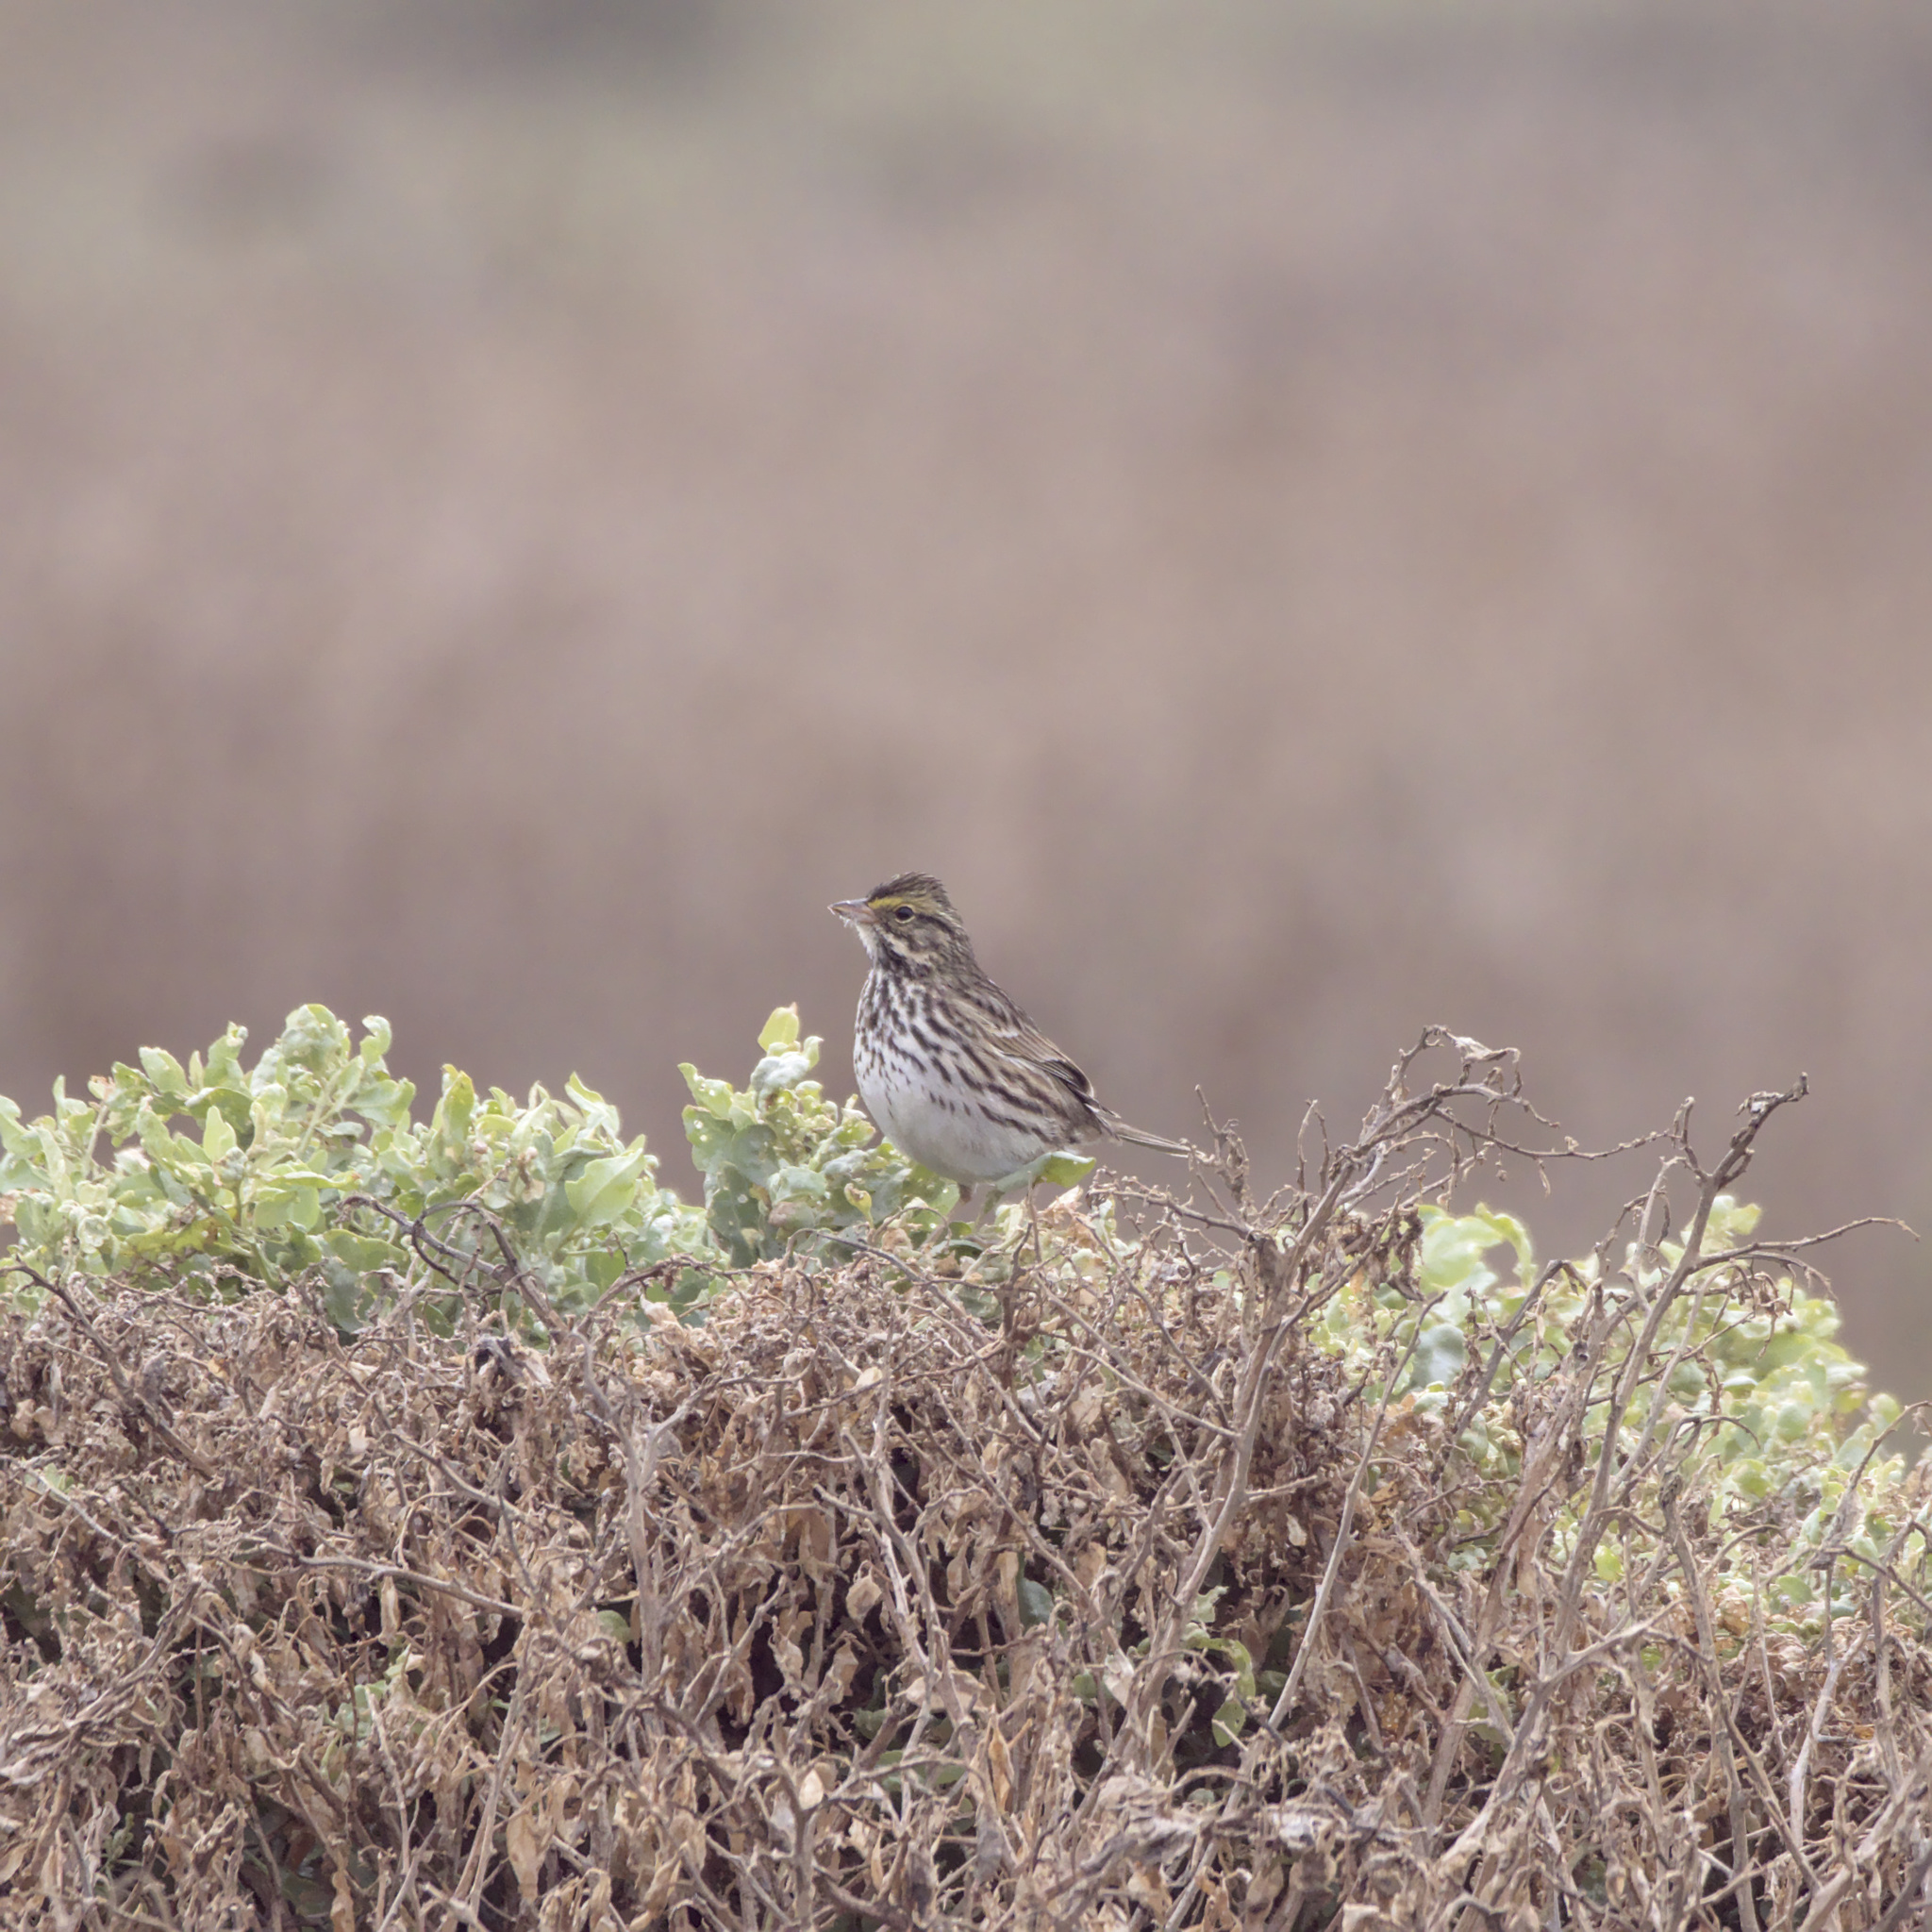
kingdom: Animalia
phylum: Chordata
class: Aves
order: Passeriformes
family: Passerellidae
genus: Passerculus
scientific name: Passerculus sandwichensis
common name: Savannah sparrow
